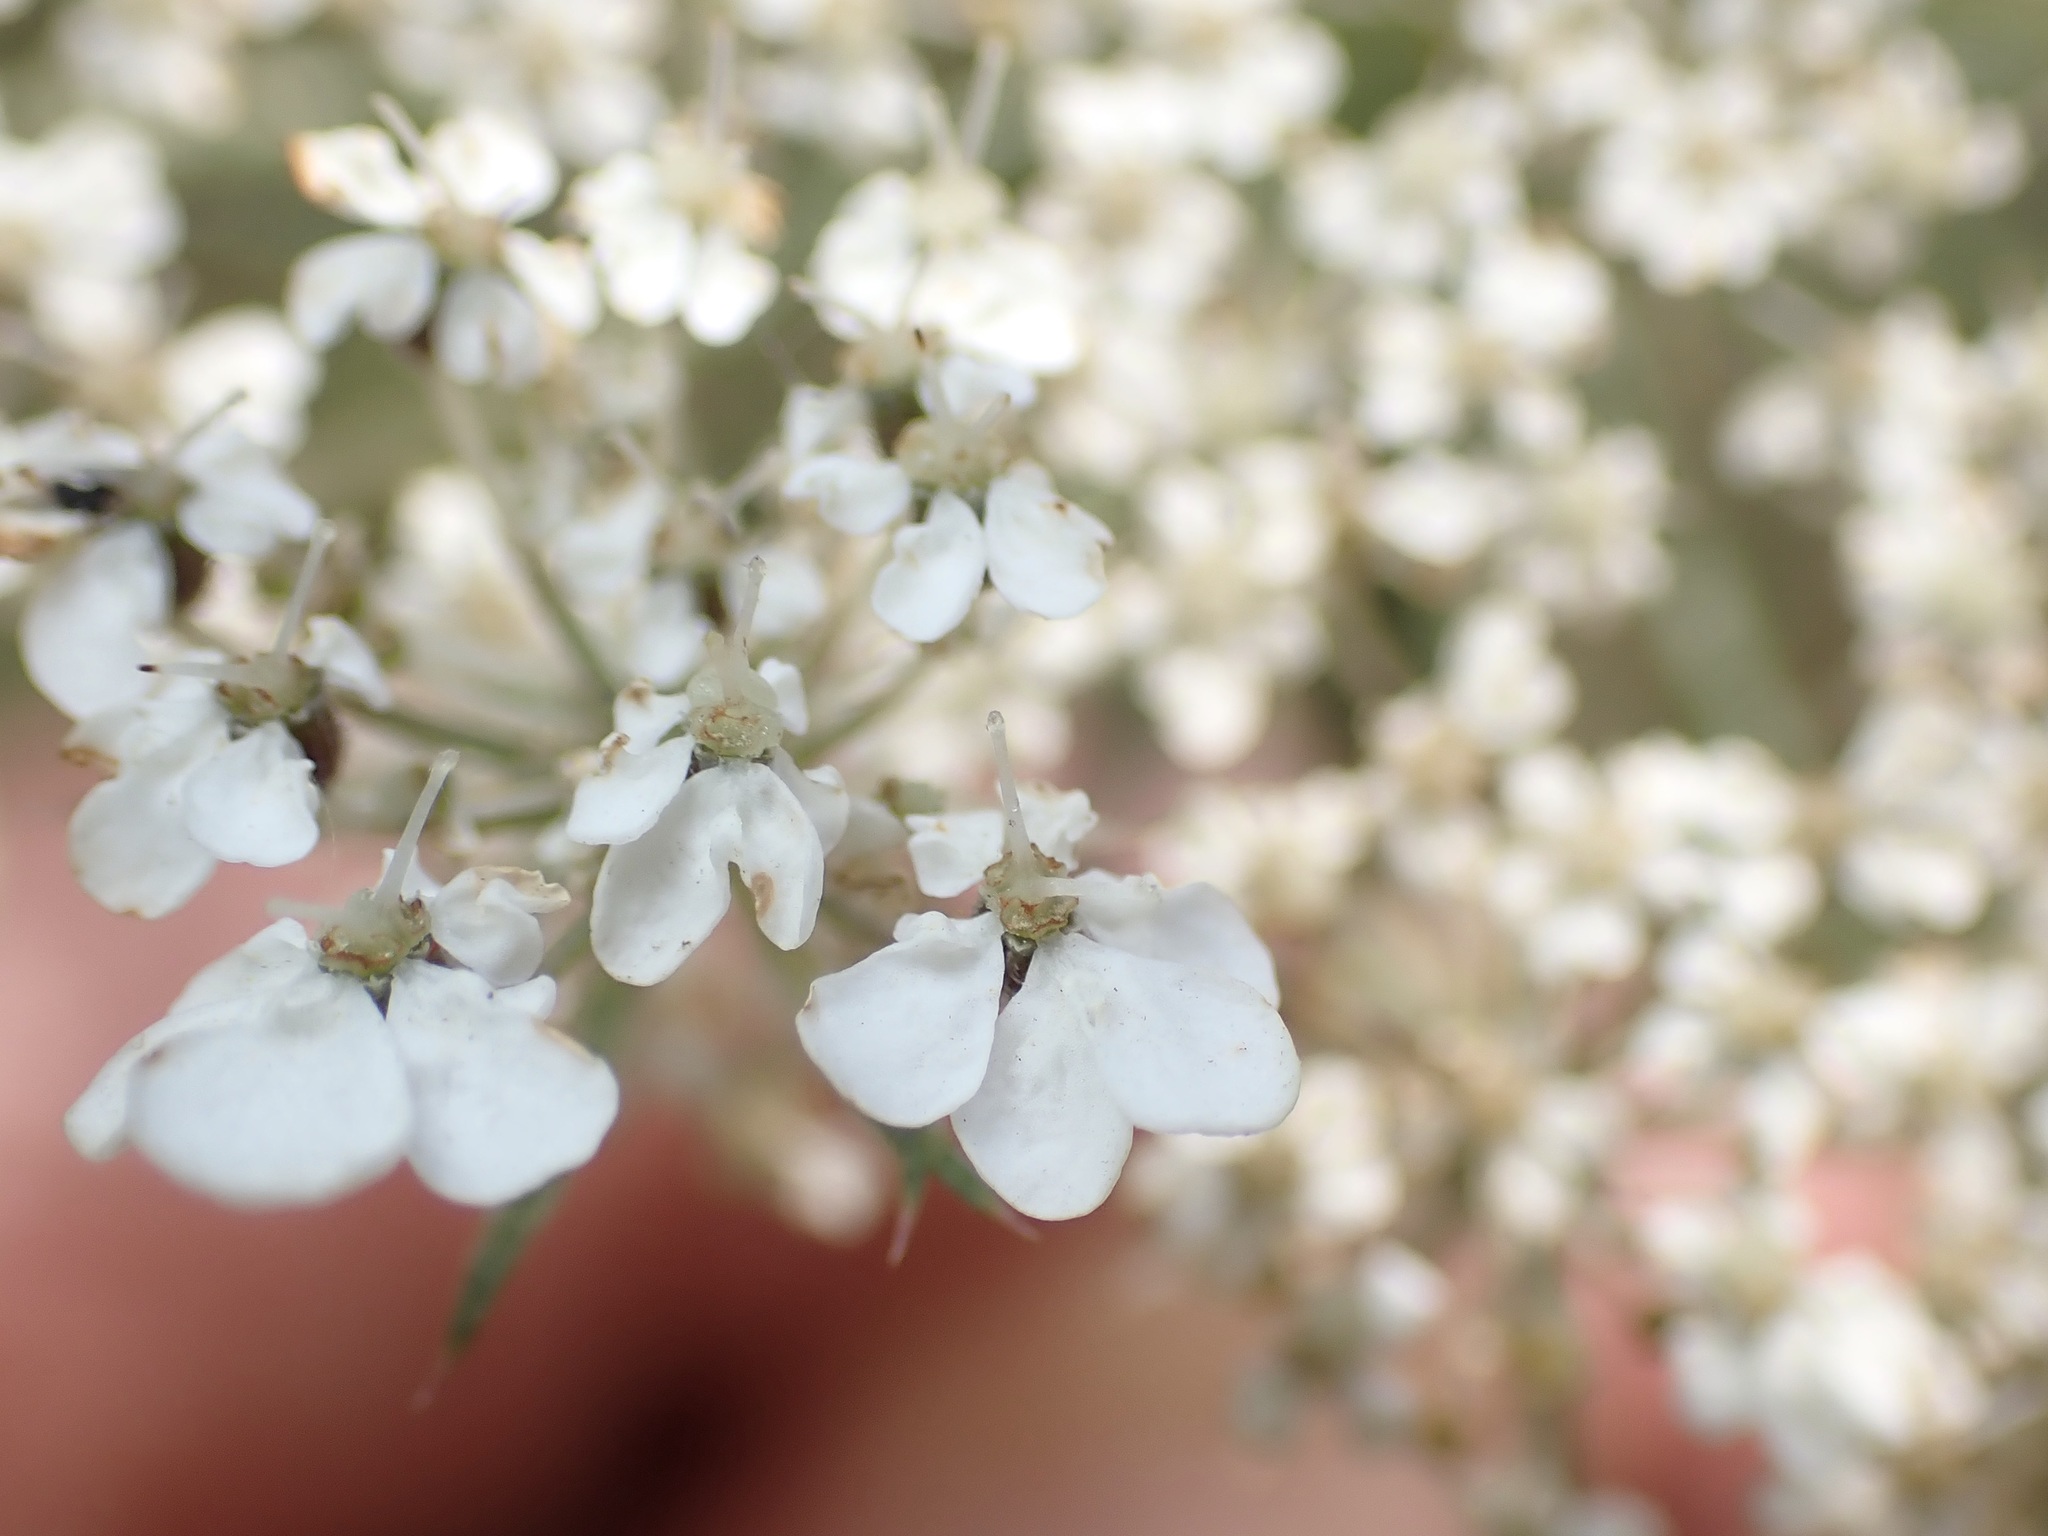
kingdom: Plantae
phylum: Tracheophyta
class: Magnoliopsida
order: Apiales
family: Apiaceae
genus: Daucus
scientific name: Daucus carota
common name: Wild carrot
